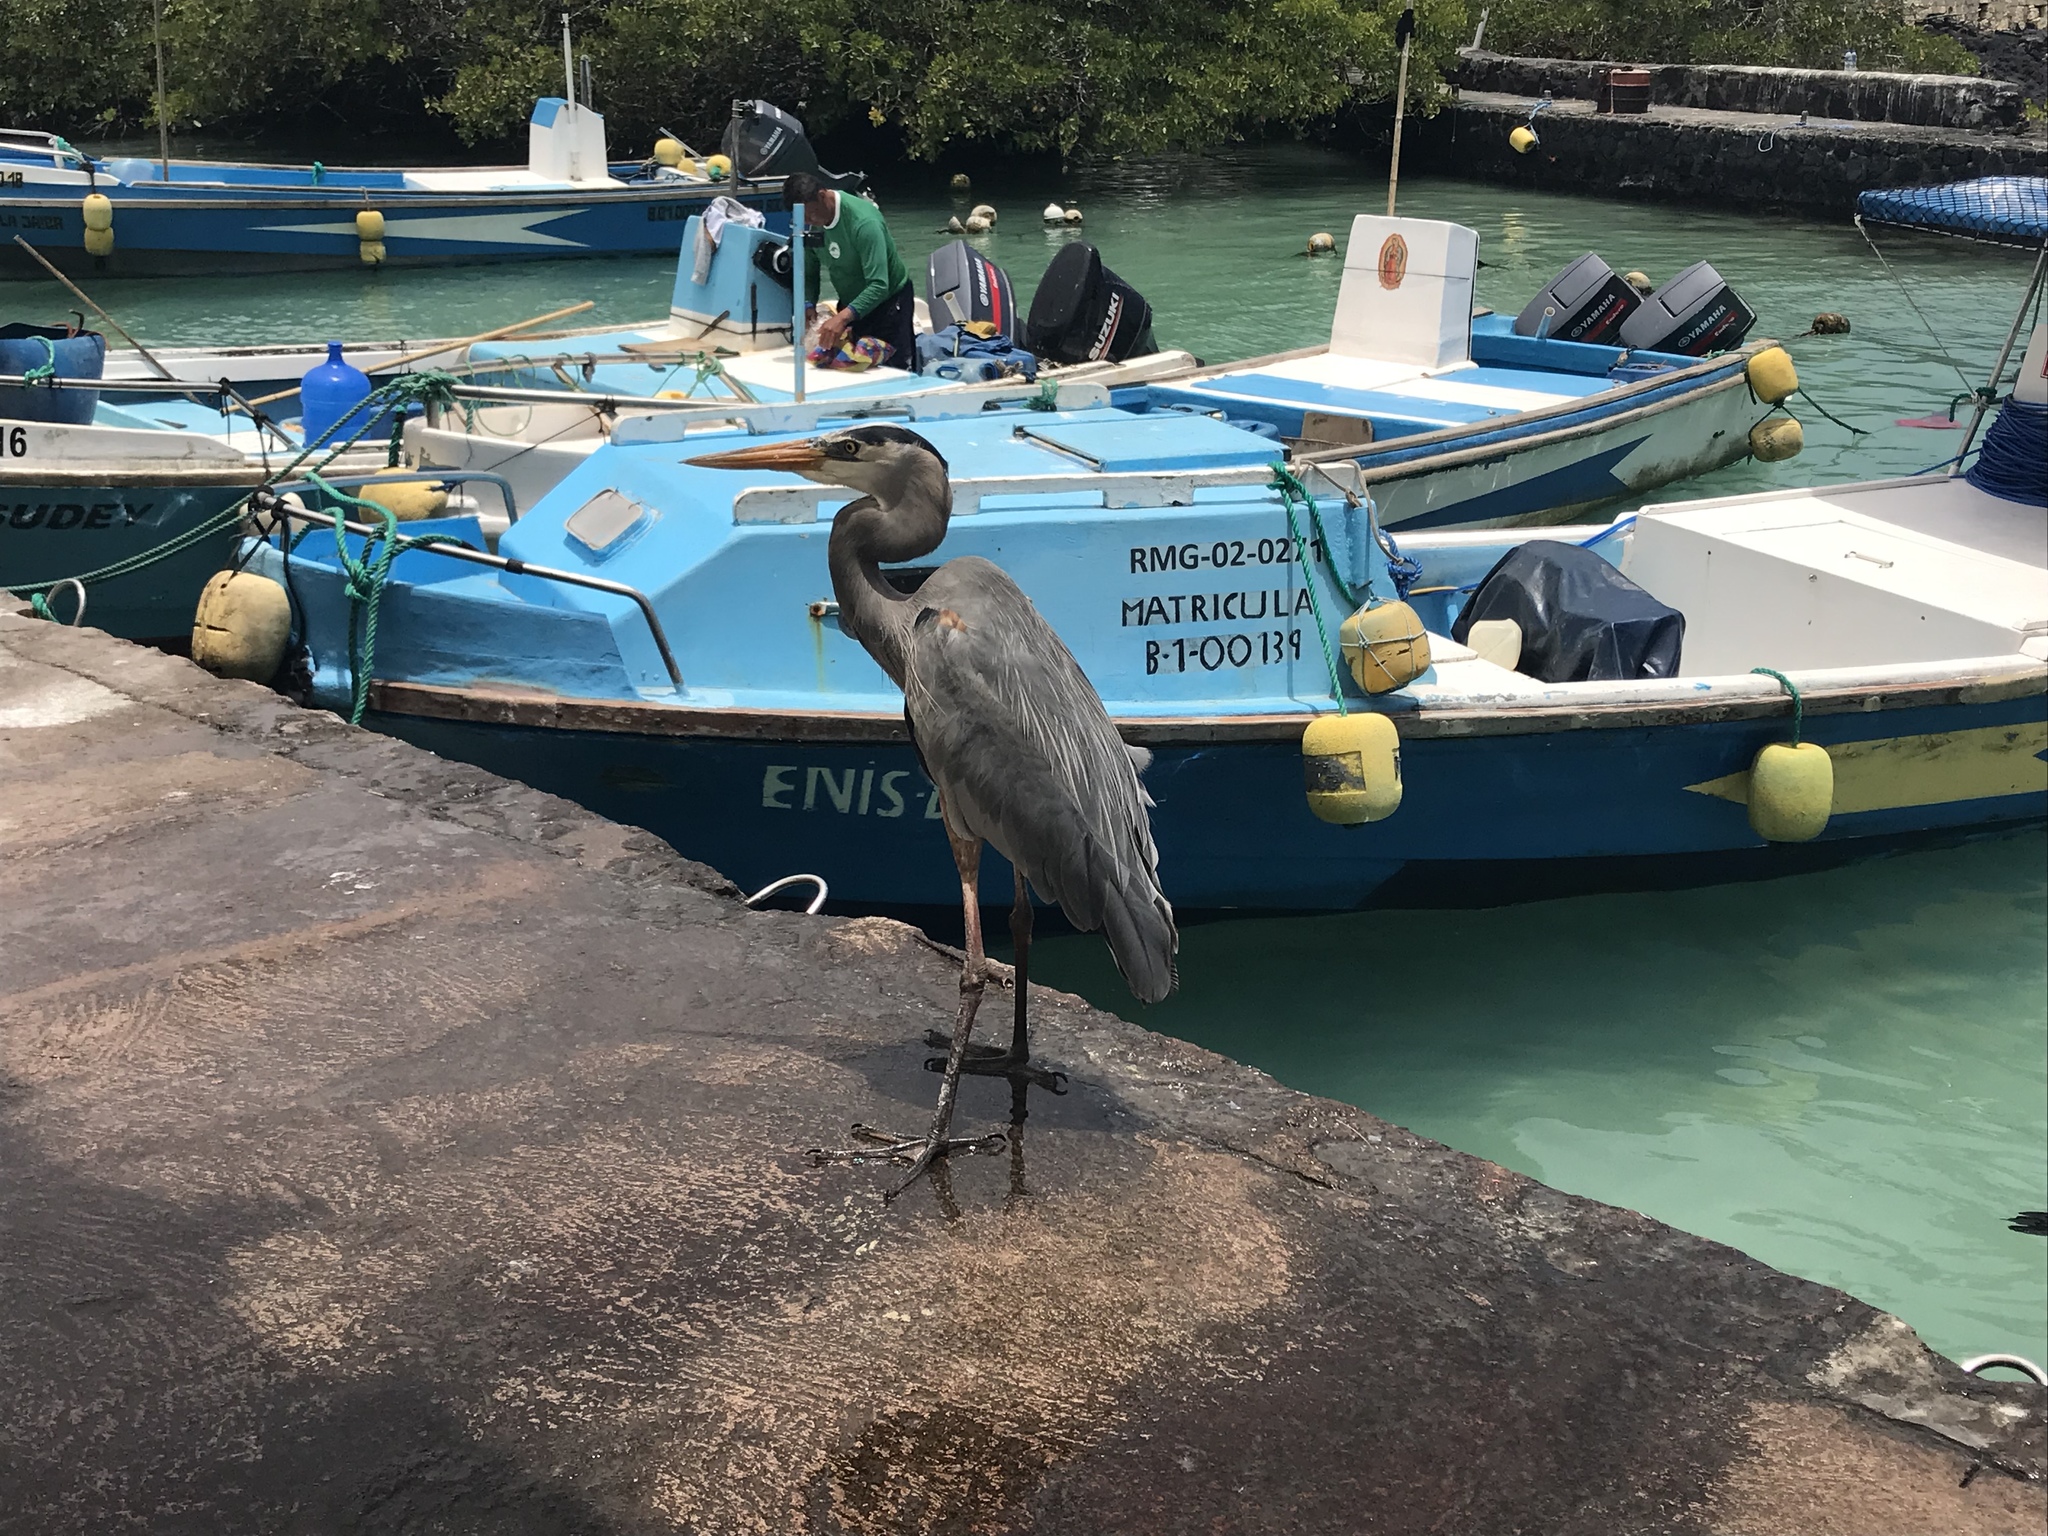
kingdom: Animalia
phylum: Chordata
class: Aves
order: Pelecaniformes
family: Ardeidae
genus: Ardea
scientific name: Ardea herodias
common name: Great blue heron
